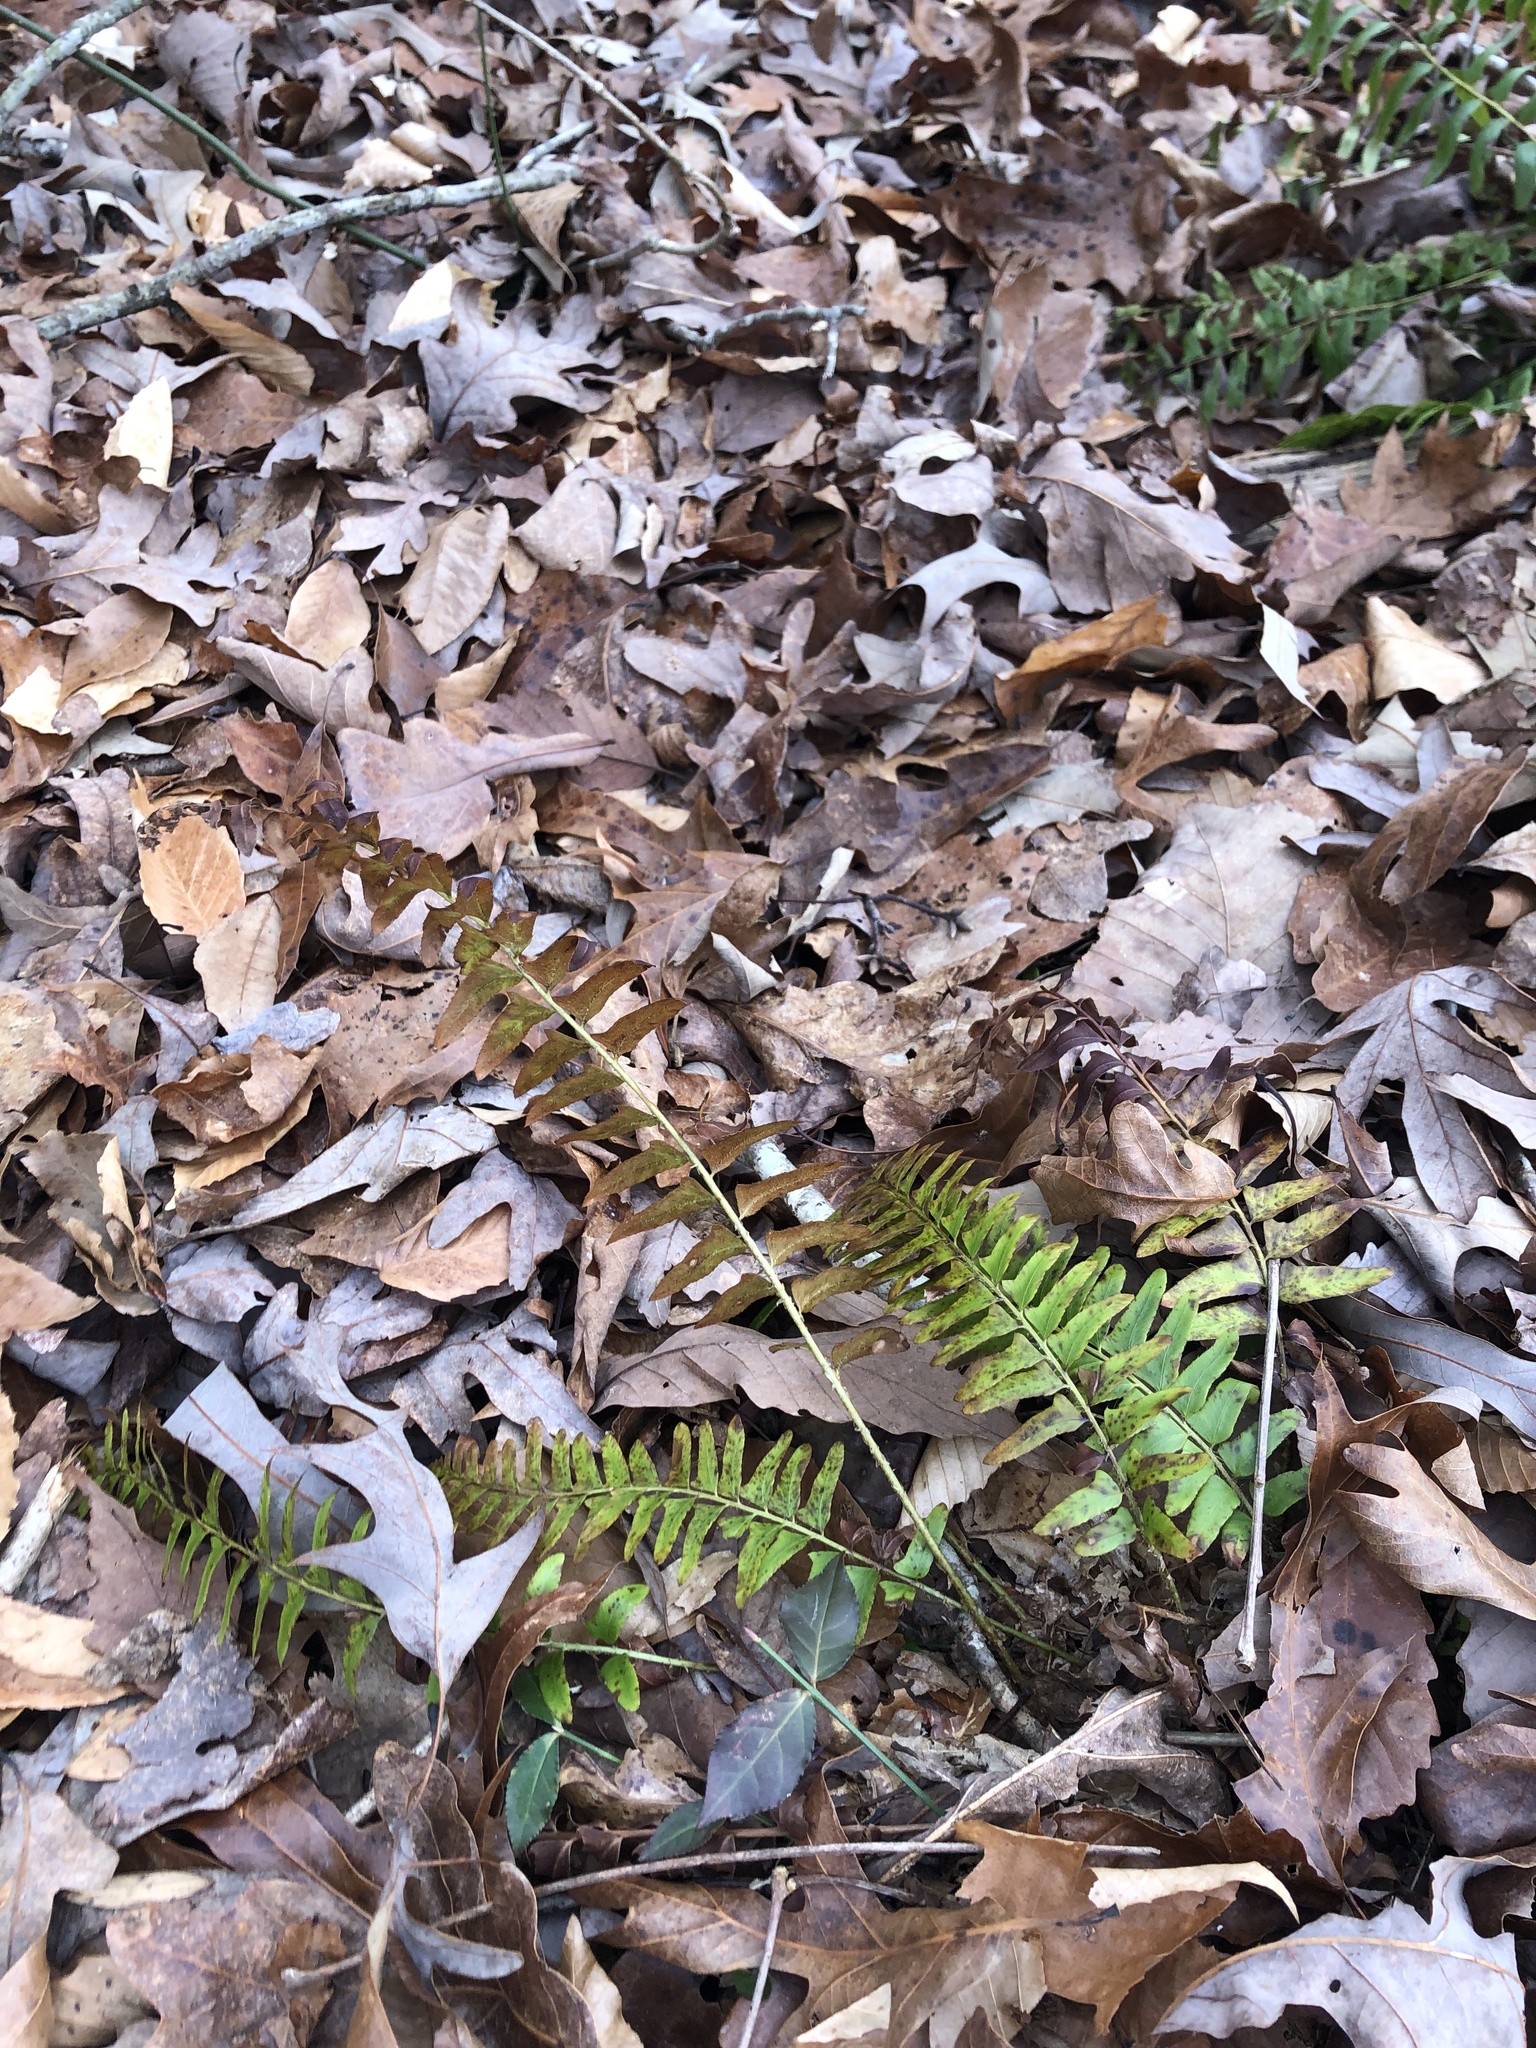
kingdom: Plantae
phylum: Tracheophyta
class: Polypodiopsida
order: Polypodiales
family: Dryopteridaceae
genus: Polystichum
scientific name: Polystichum acrostichoides
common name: Christmas fern
